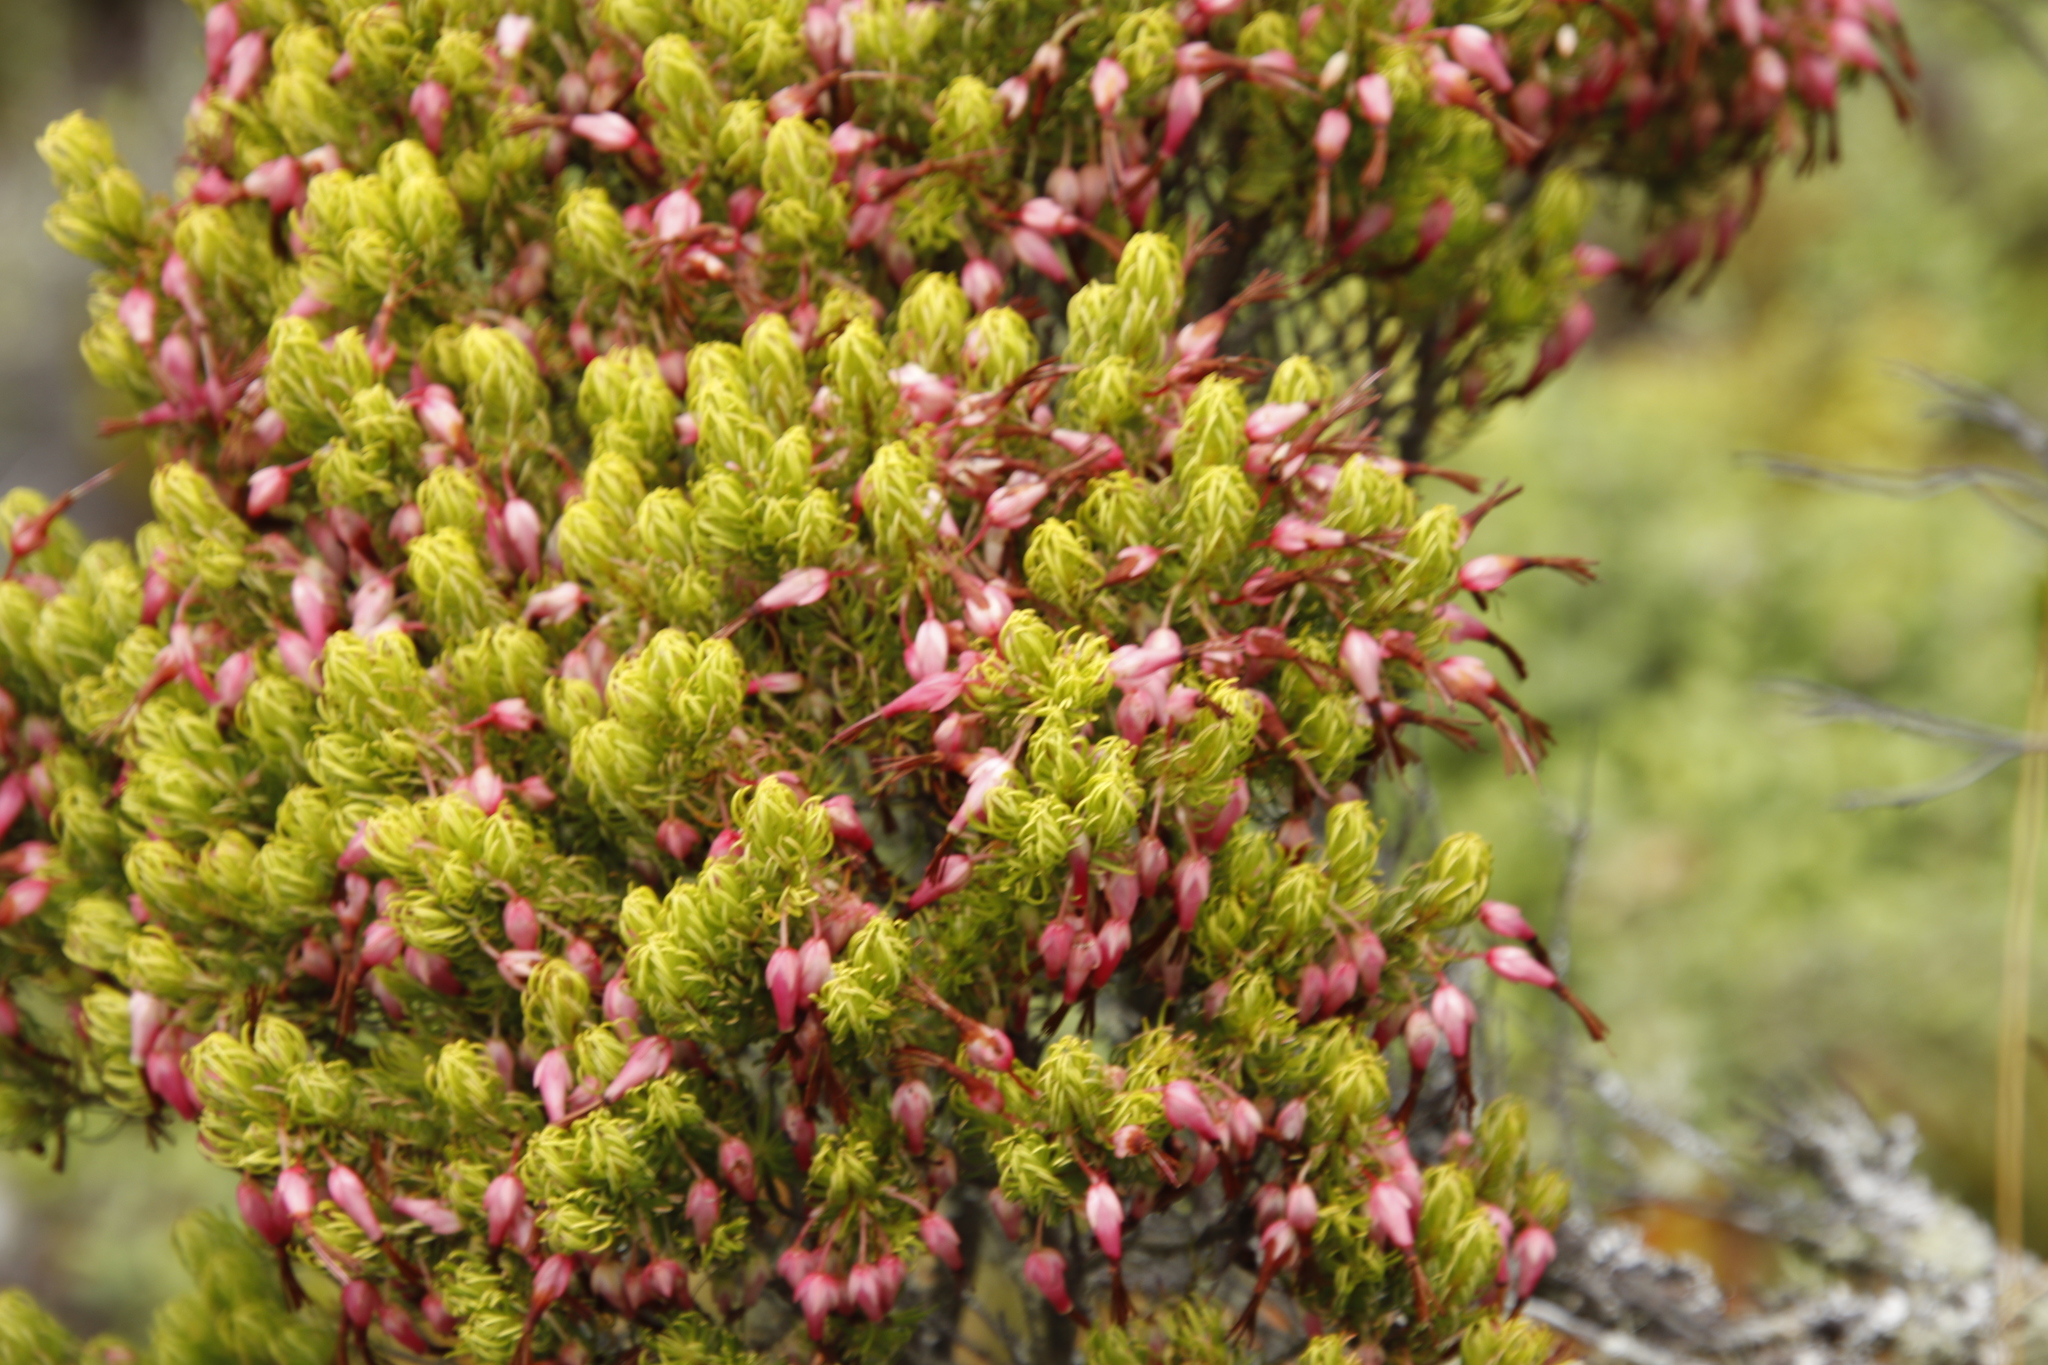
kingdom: Plantae
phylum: Tracheophyta
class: Magnoliopsida
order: Ericales
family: Ericaceae
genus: Erica
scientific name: Erica plukenetii
